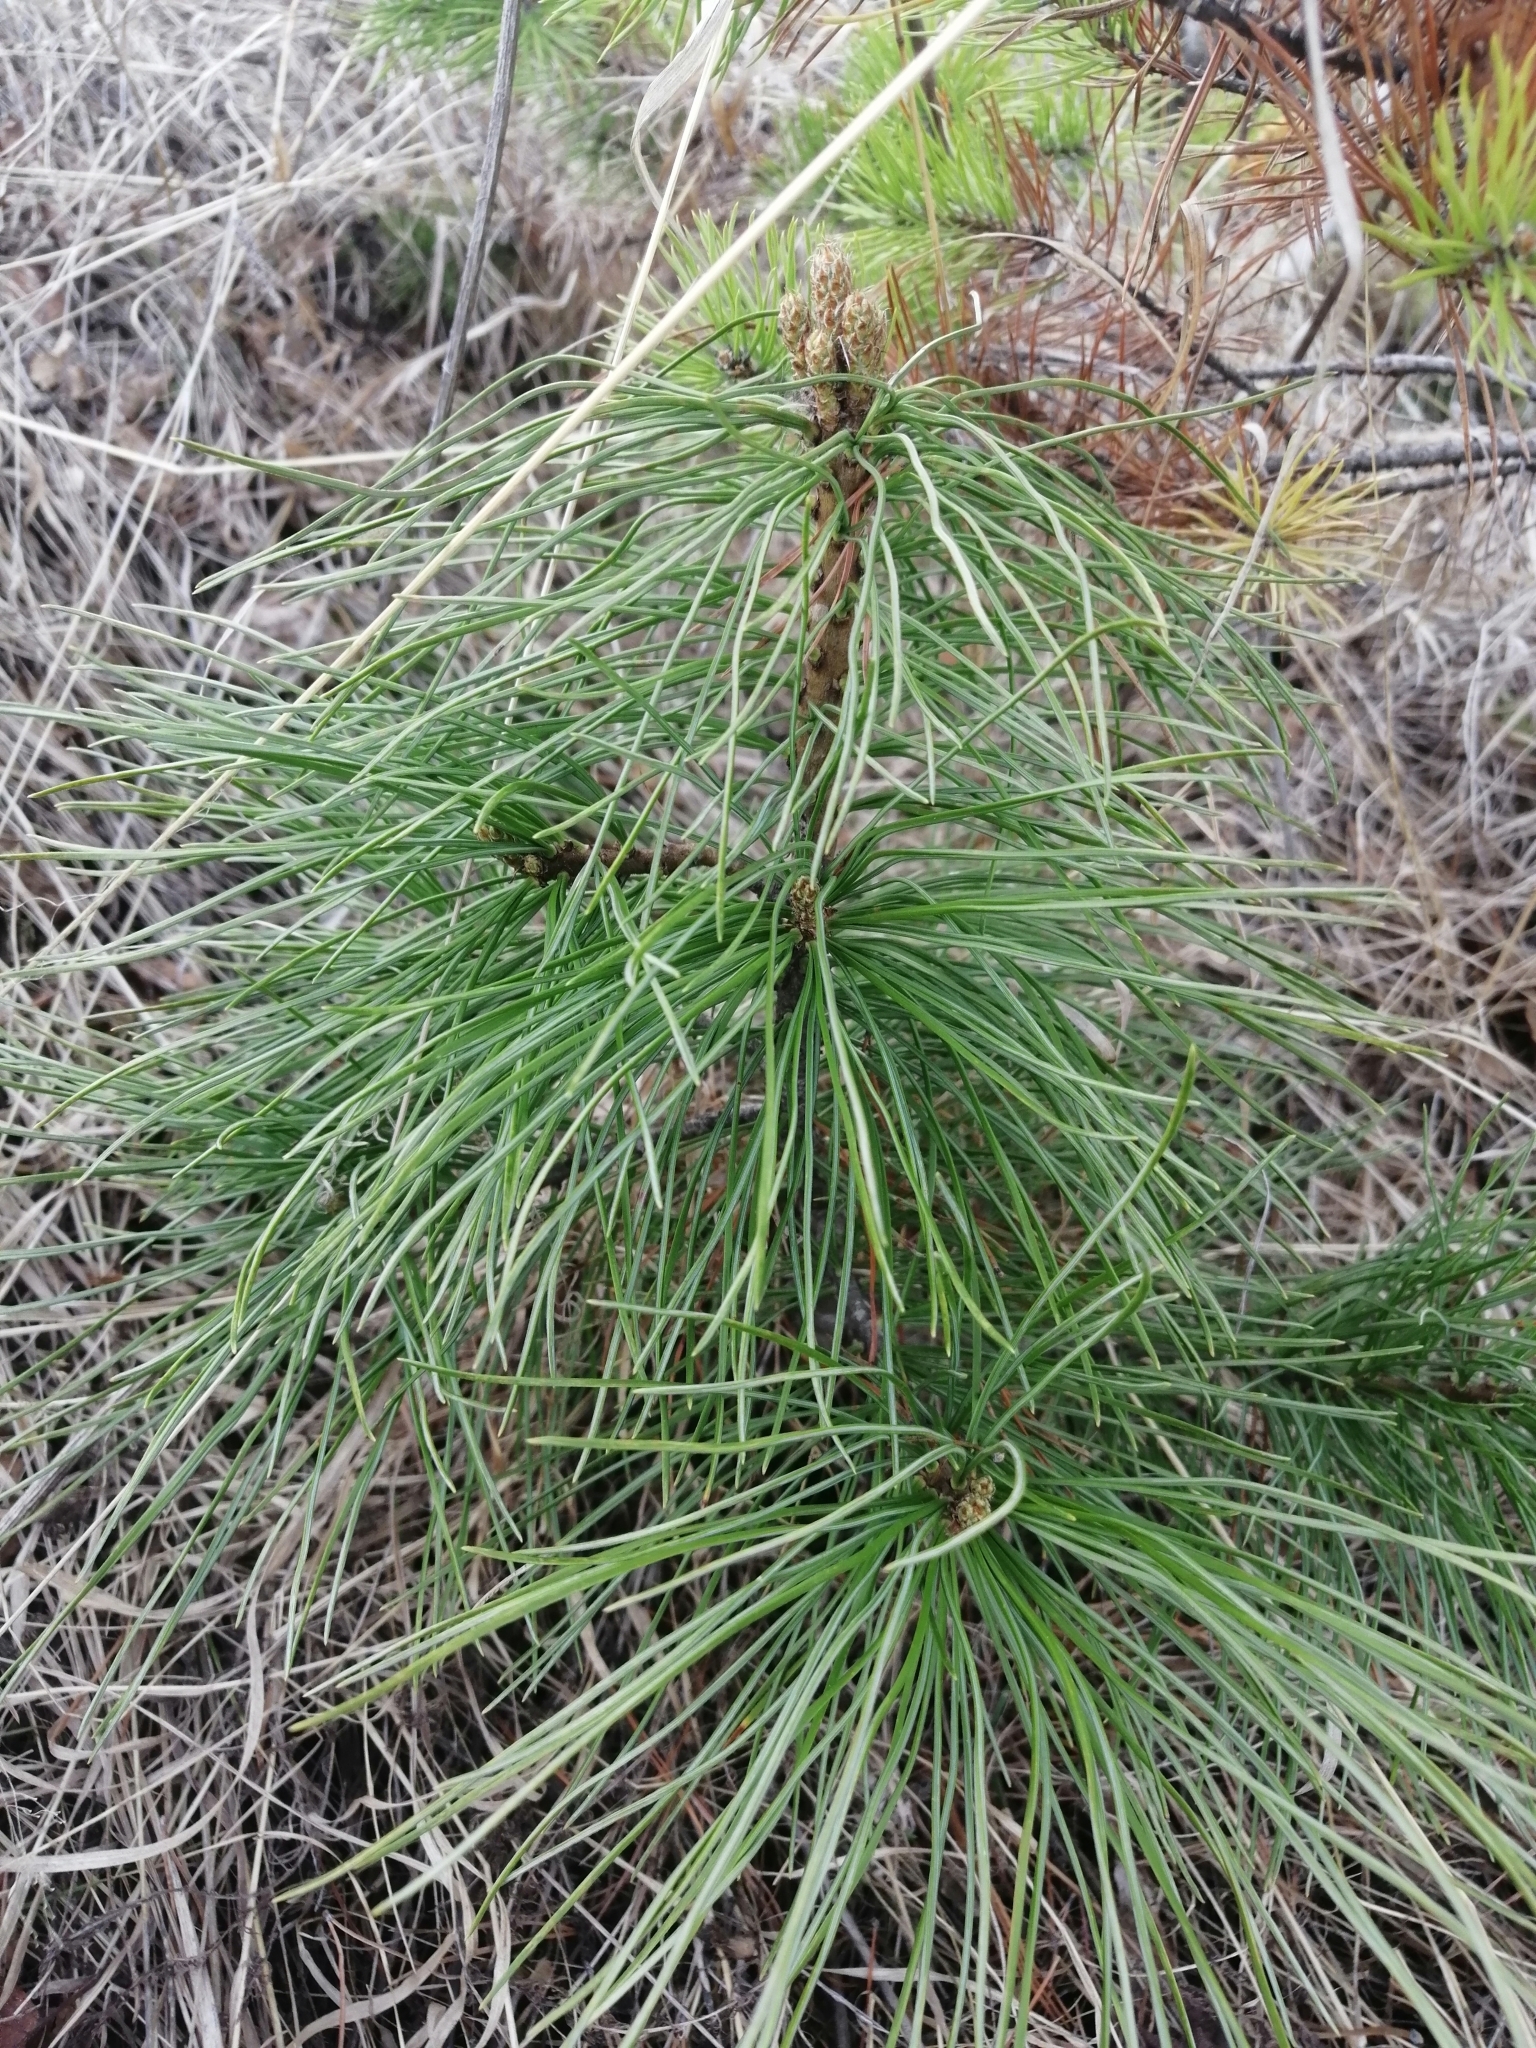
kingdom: Plantae
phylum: Tracheophyta
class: Pinopsida
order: Pinales
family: Pinaceae
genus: Pinus
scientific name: Pinus sibirica
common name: Siberian pine
